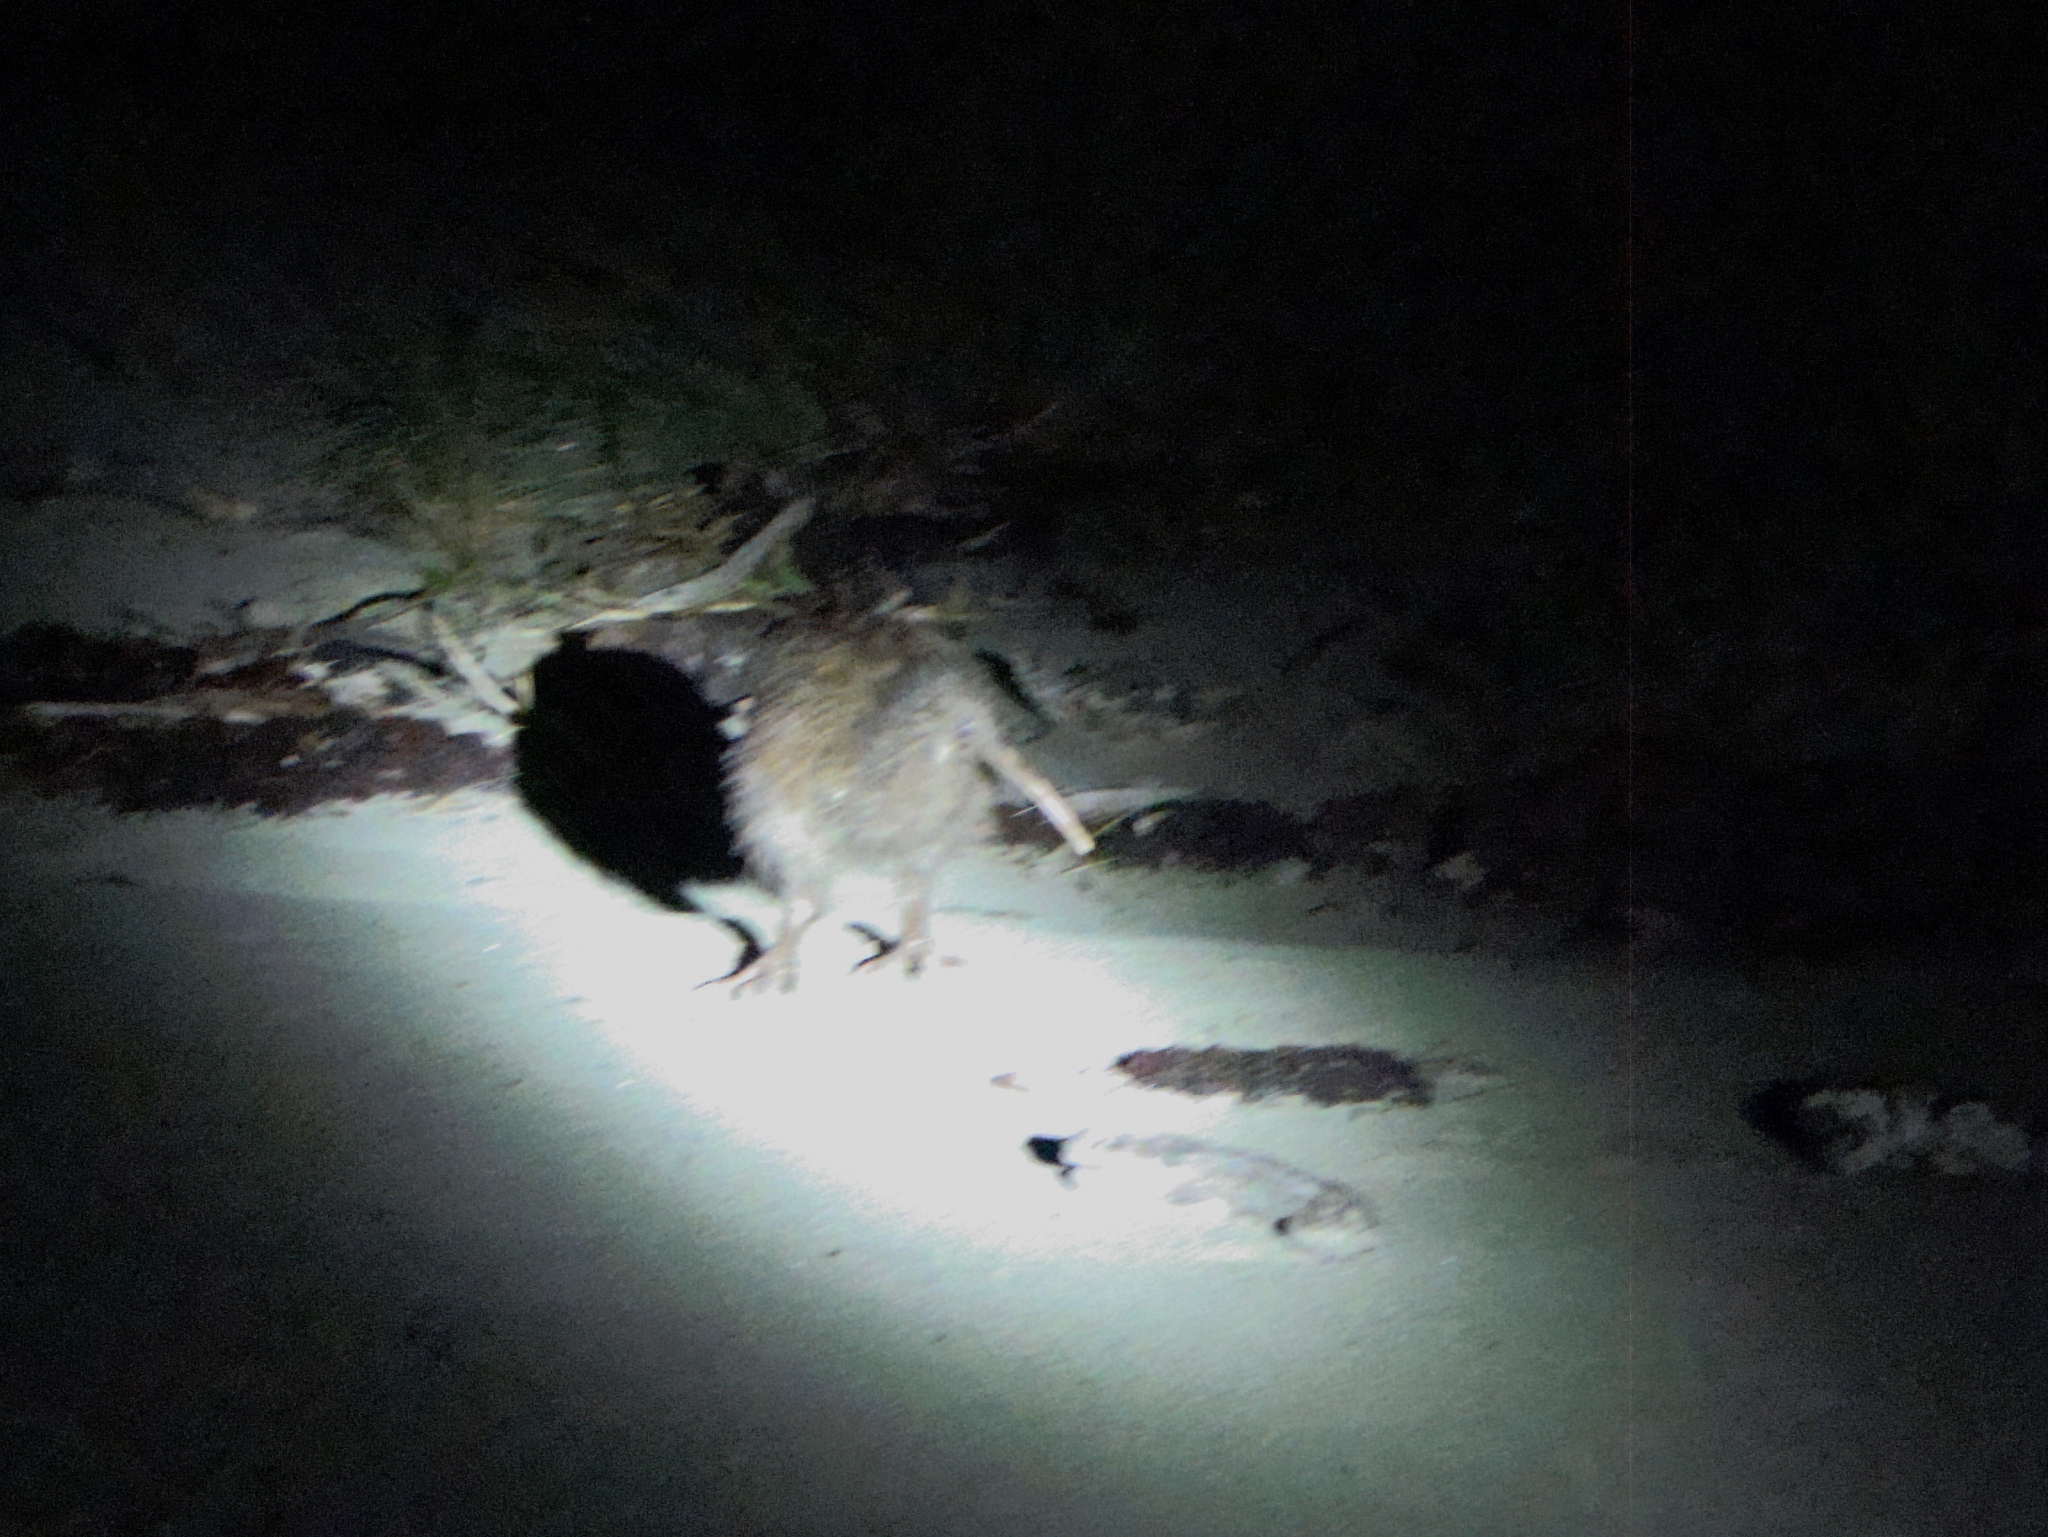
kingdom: Animalia
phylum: Chordata
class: Aves
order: Apterygiformes
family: Apterygidae
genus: Apteryx
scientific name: Apteryx australis
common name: Southern brown kiwi
